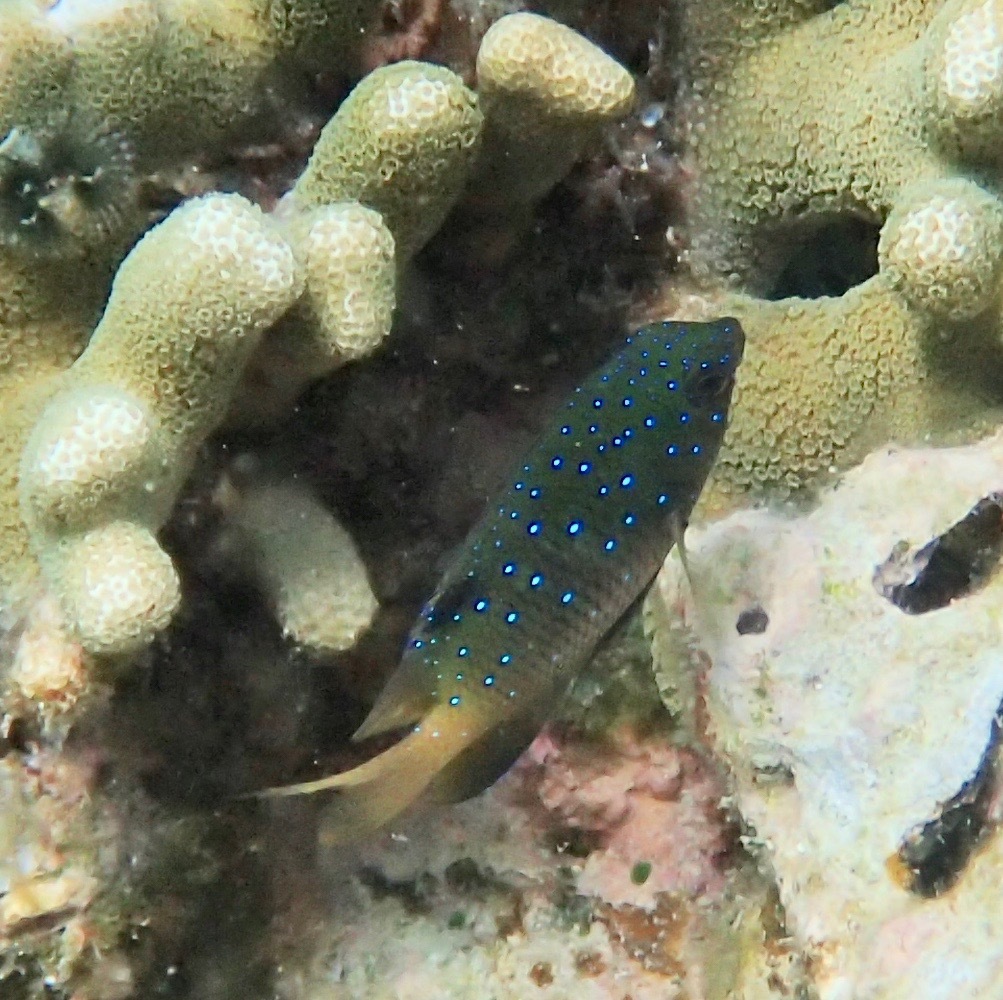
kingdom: Animalia
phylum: Chordata
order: Perciformes
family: Pomacentridae
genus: Plectroglyphidodon
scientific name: Plectroglyphidodon lacrymatus
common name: Jewel damsel
